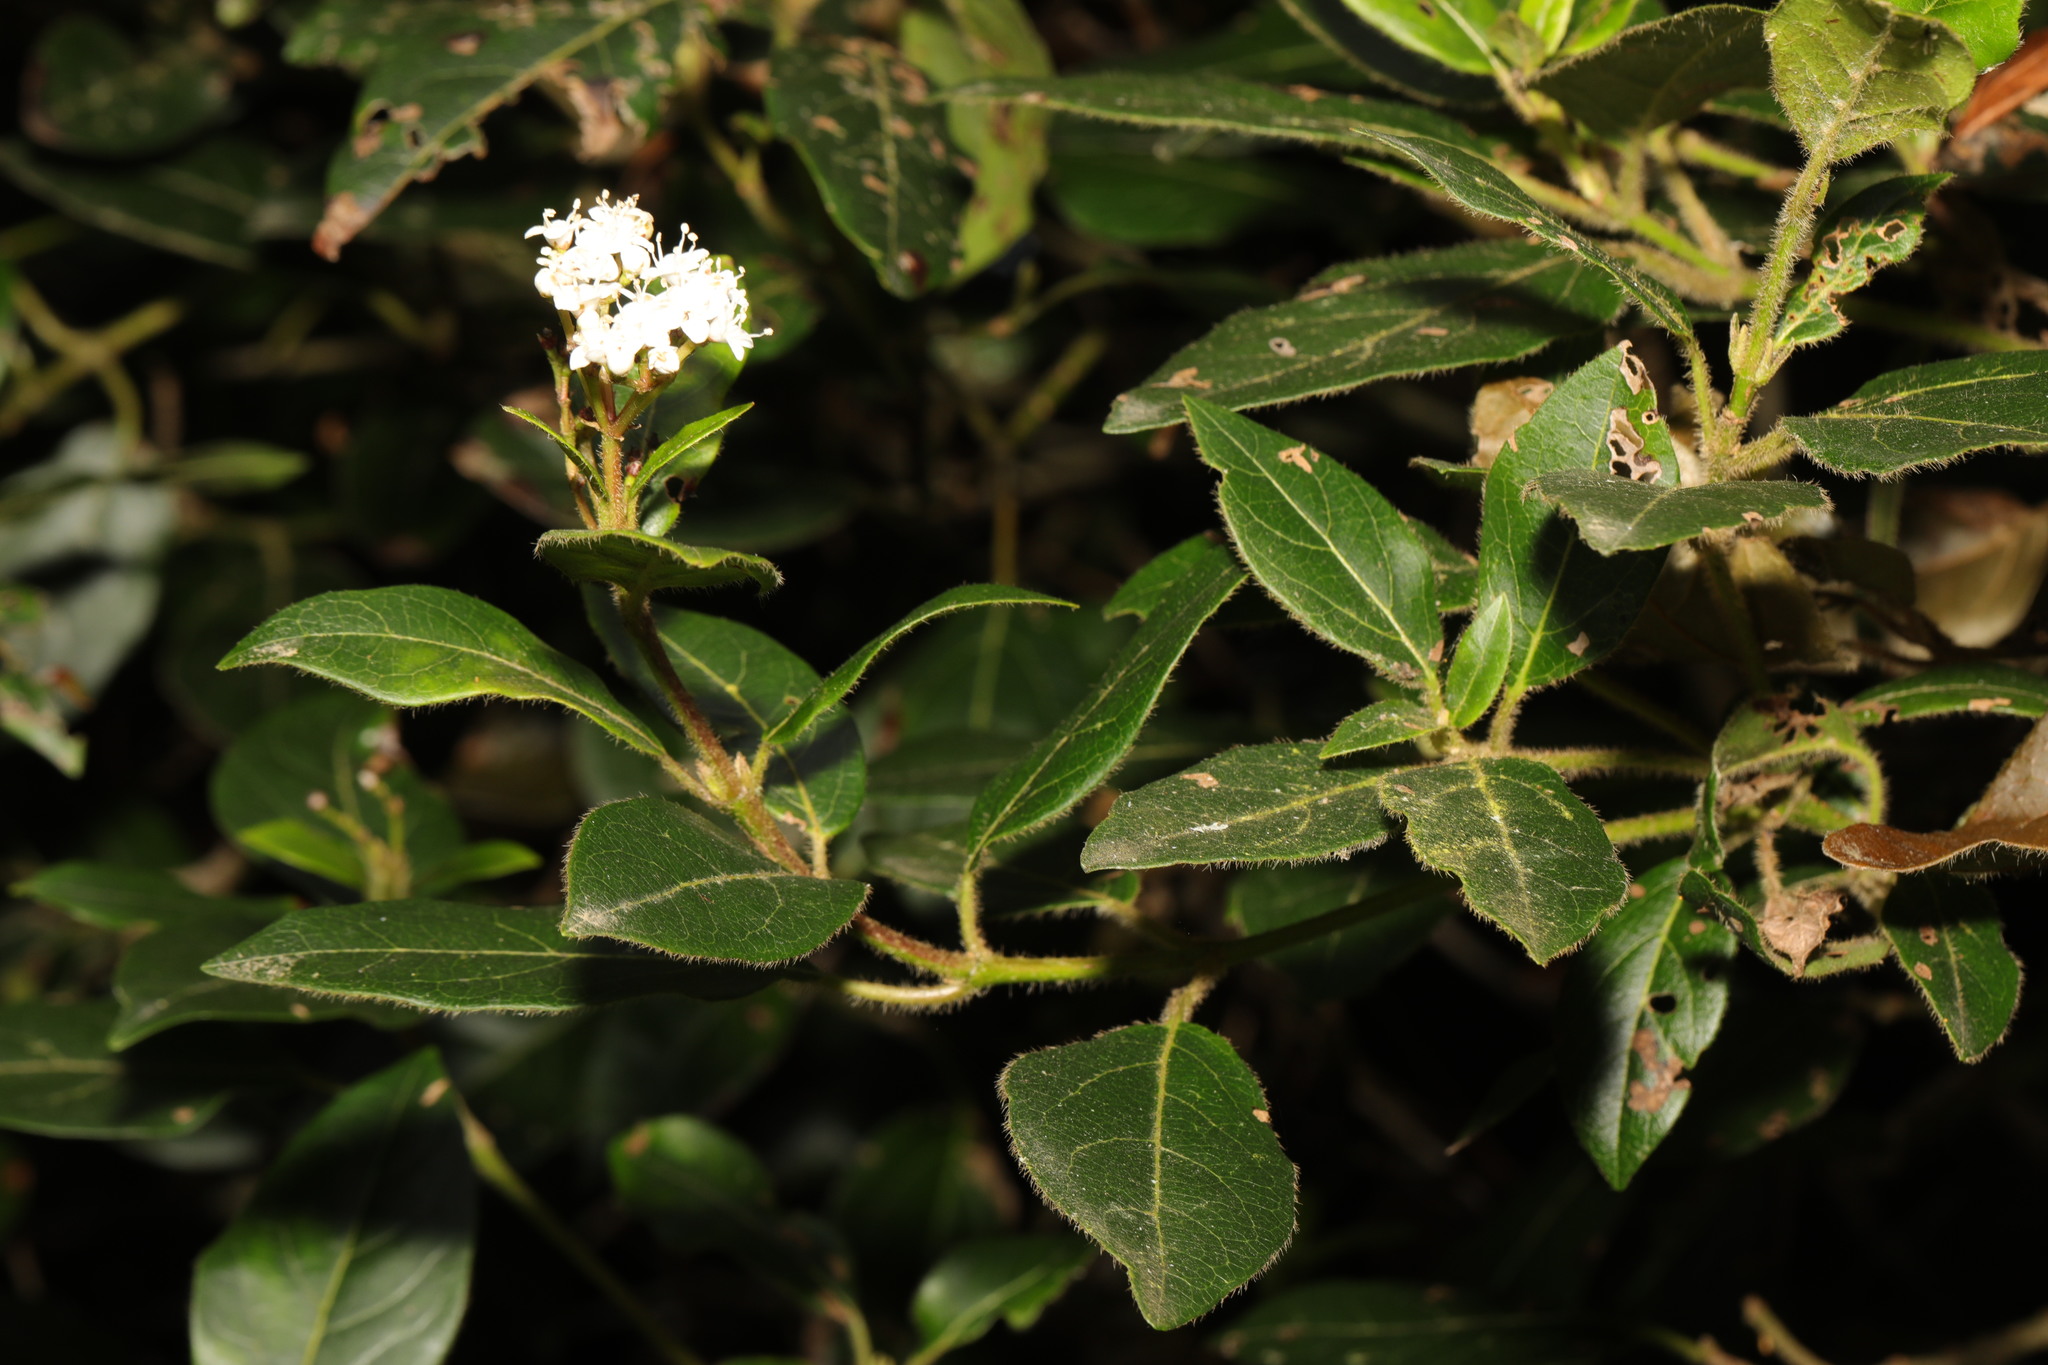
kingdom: Plantae
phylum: Tracheophyta
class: Magnoliopsida
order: Dipsacales
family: Viburnaceae
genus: Viburnum
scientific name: Viburnum tinus
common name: Laurustinus
